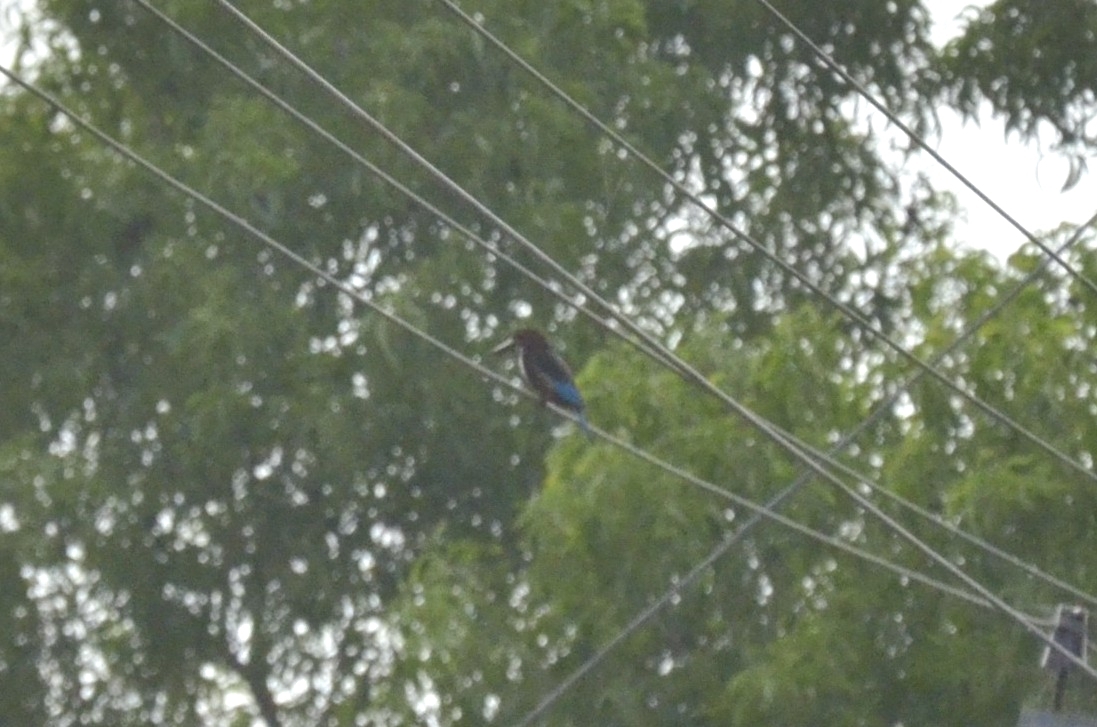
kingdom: Animalia
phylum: Chordata
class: Aves
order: Coraciiformes
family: Alcedinidae
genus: Halcyon
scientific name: Halcyon smyrnensis
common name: White-throated kingfisher
